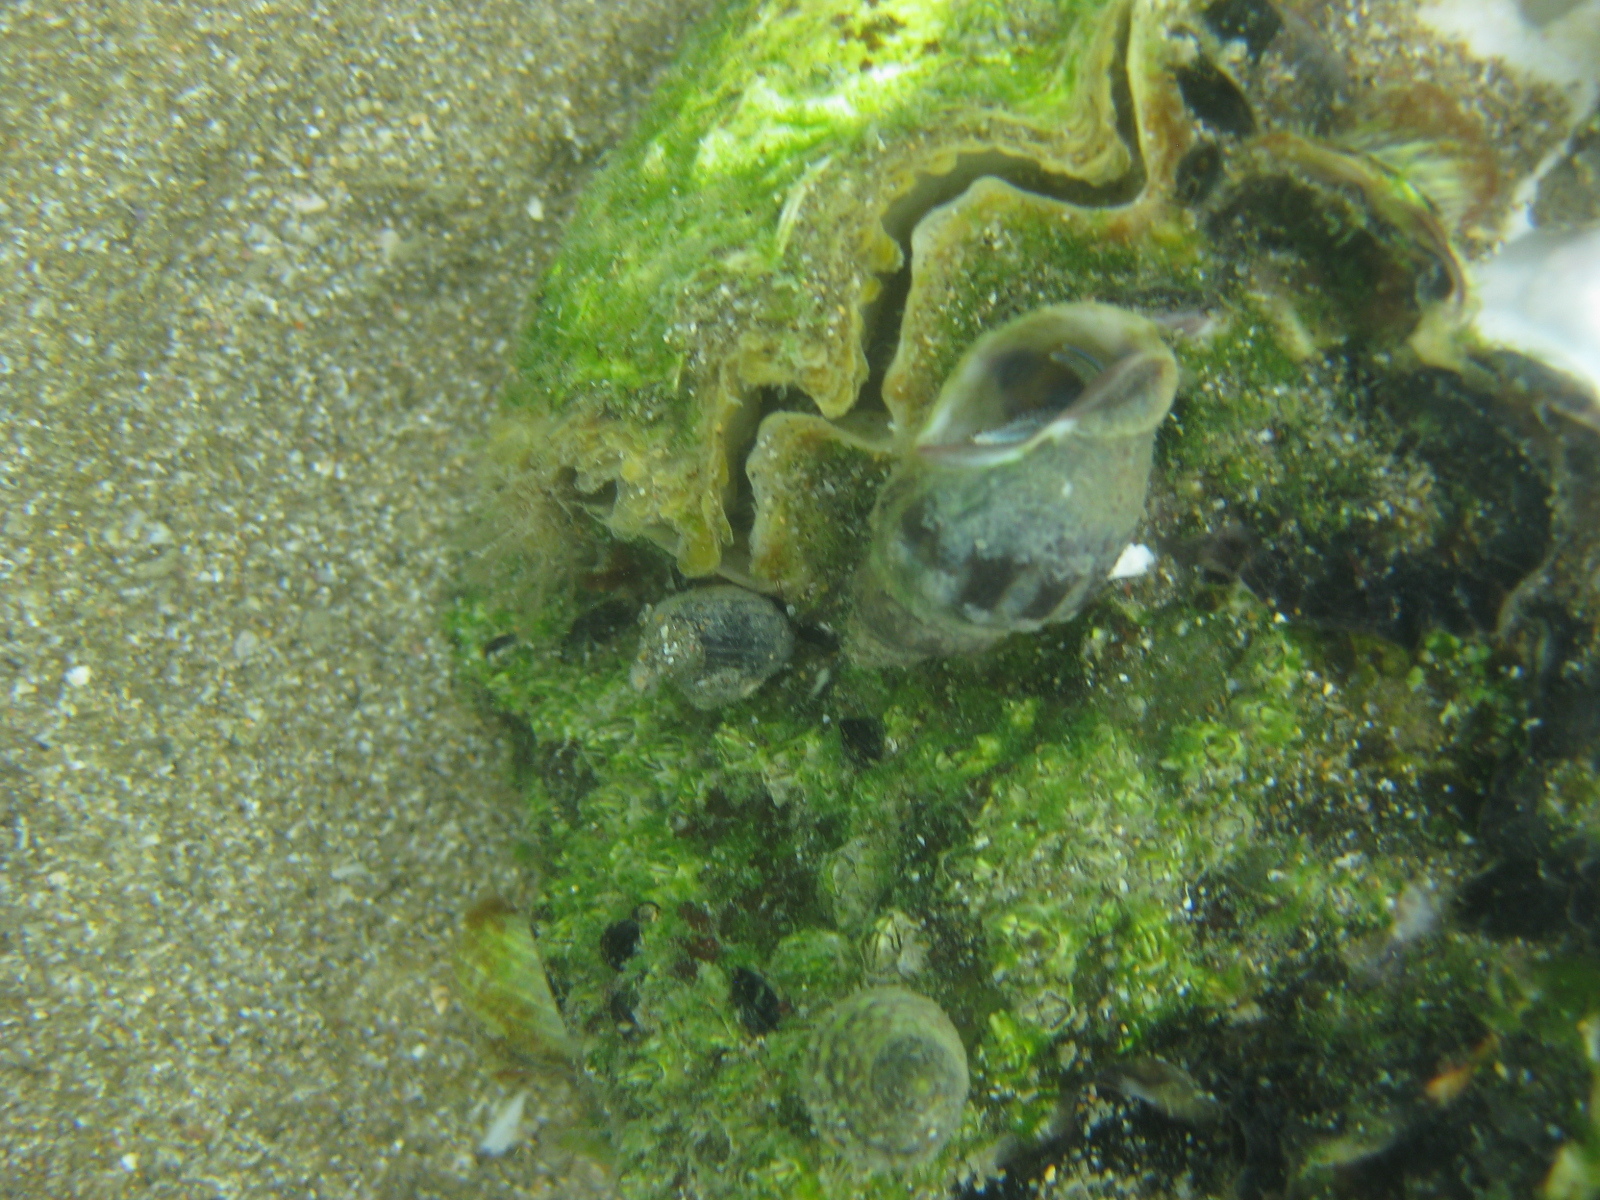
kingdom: Animalia
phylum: Mollusca
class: Bivalvia
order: Ostreida
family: Ostreidae
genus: Magallana
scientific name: Magallana gigas
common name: Pacific oyster
